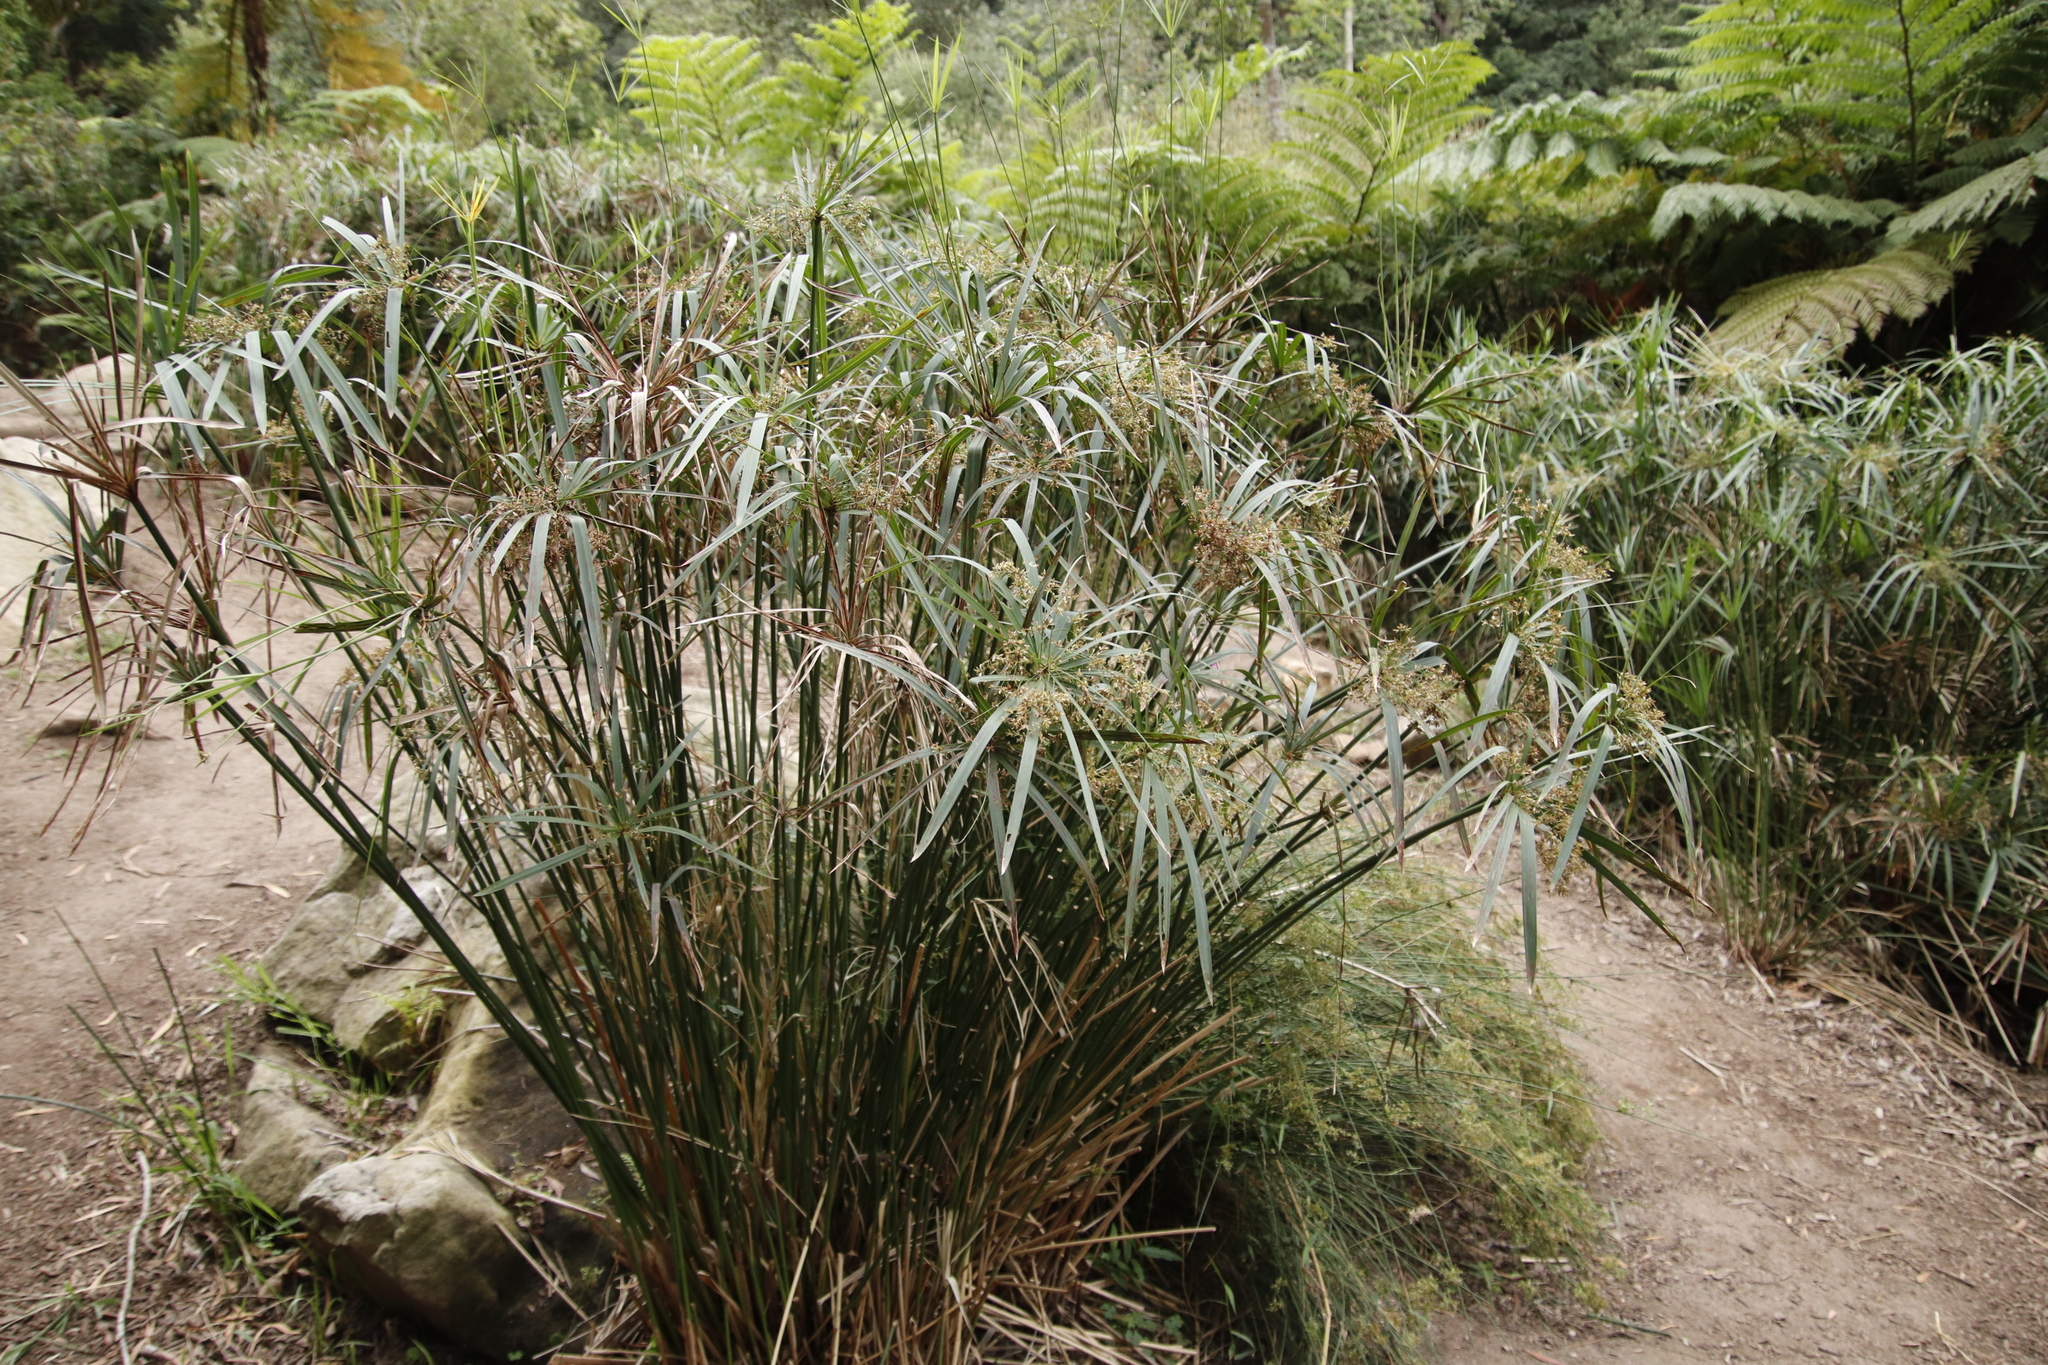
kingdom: Plantae
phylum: Tracheophyta
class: Liliopsida
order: Poales
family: Cyperaceae
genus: Cyperus
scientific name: Cyperus textilis
